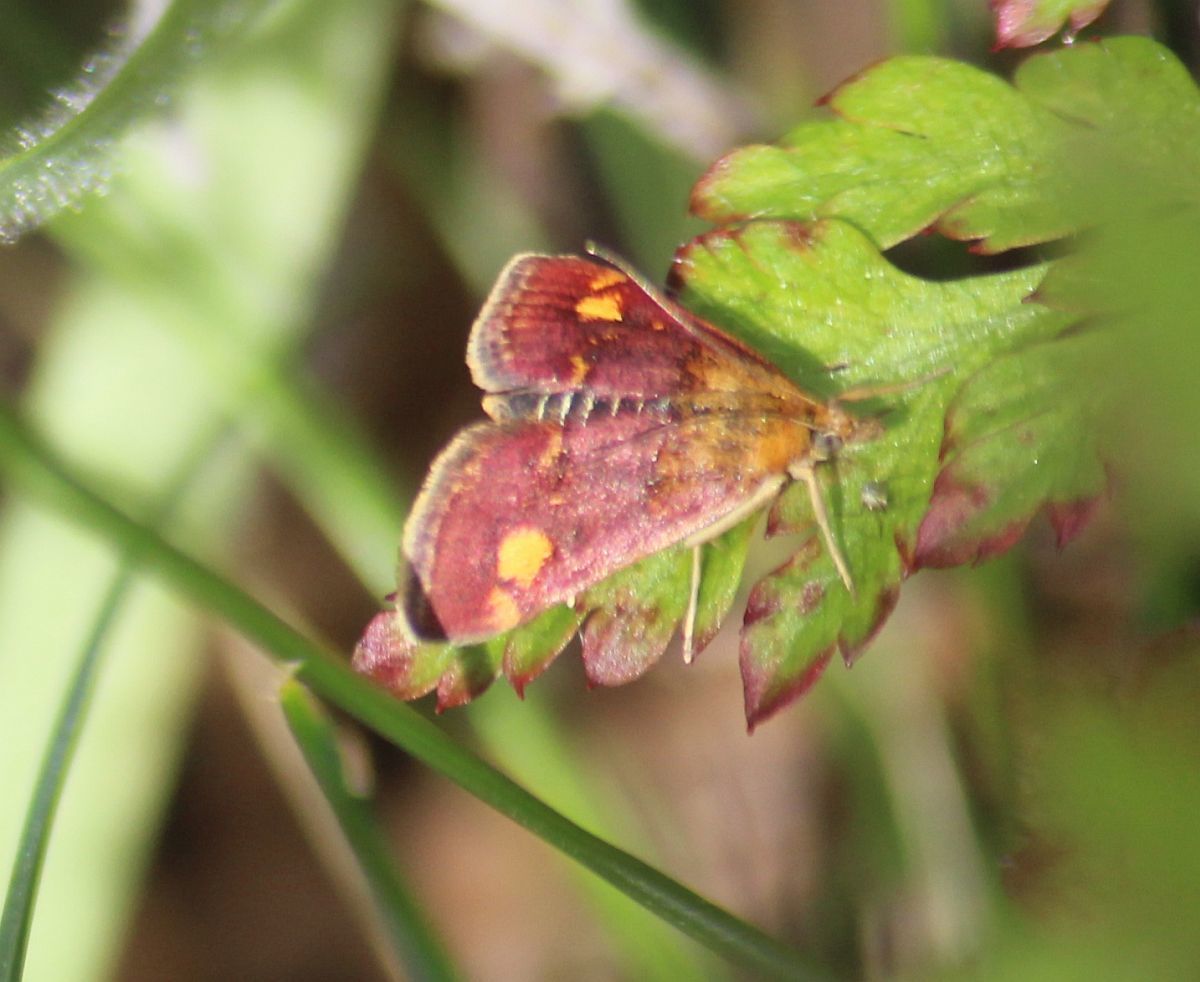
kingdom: Animalia
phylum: Arthropoda
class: Insecta
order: Lepidoptera
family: Crambidae
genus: Pyrausta
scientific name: Pyrausta aurata
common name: Small purple & gold
